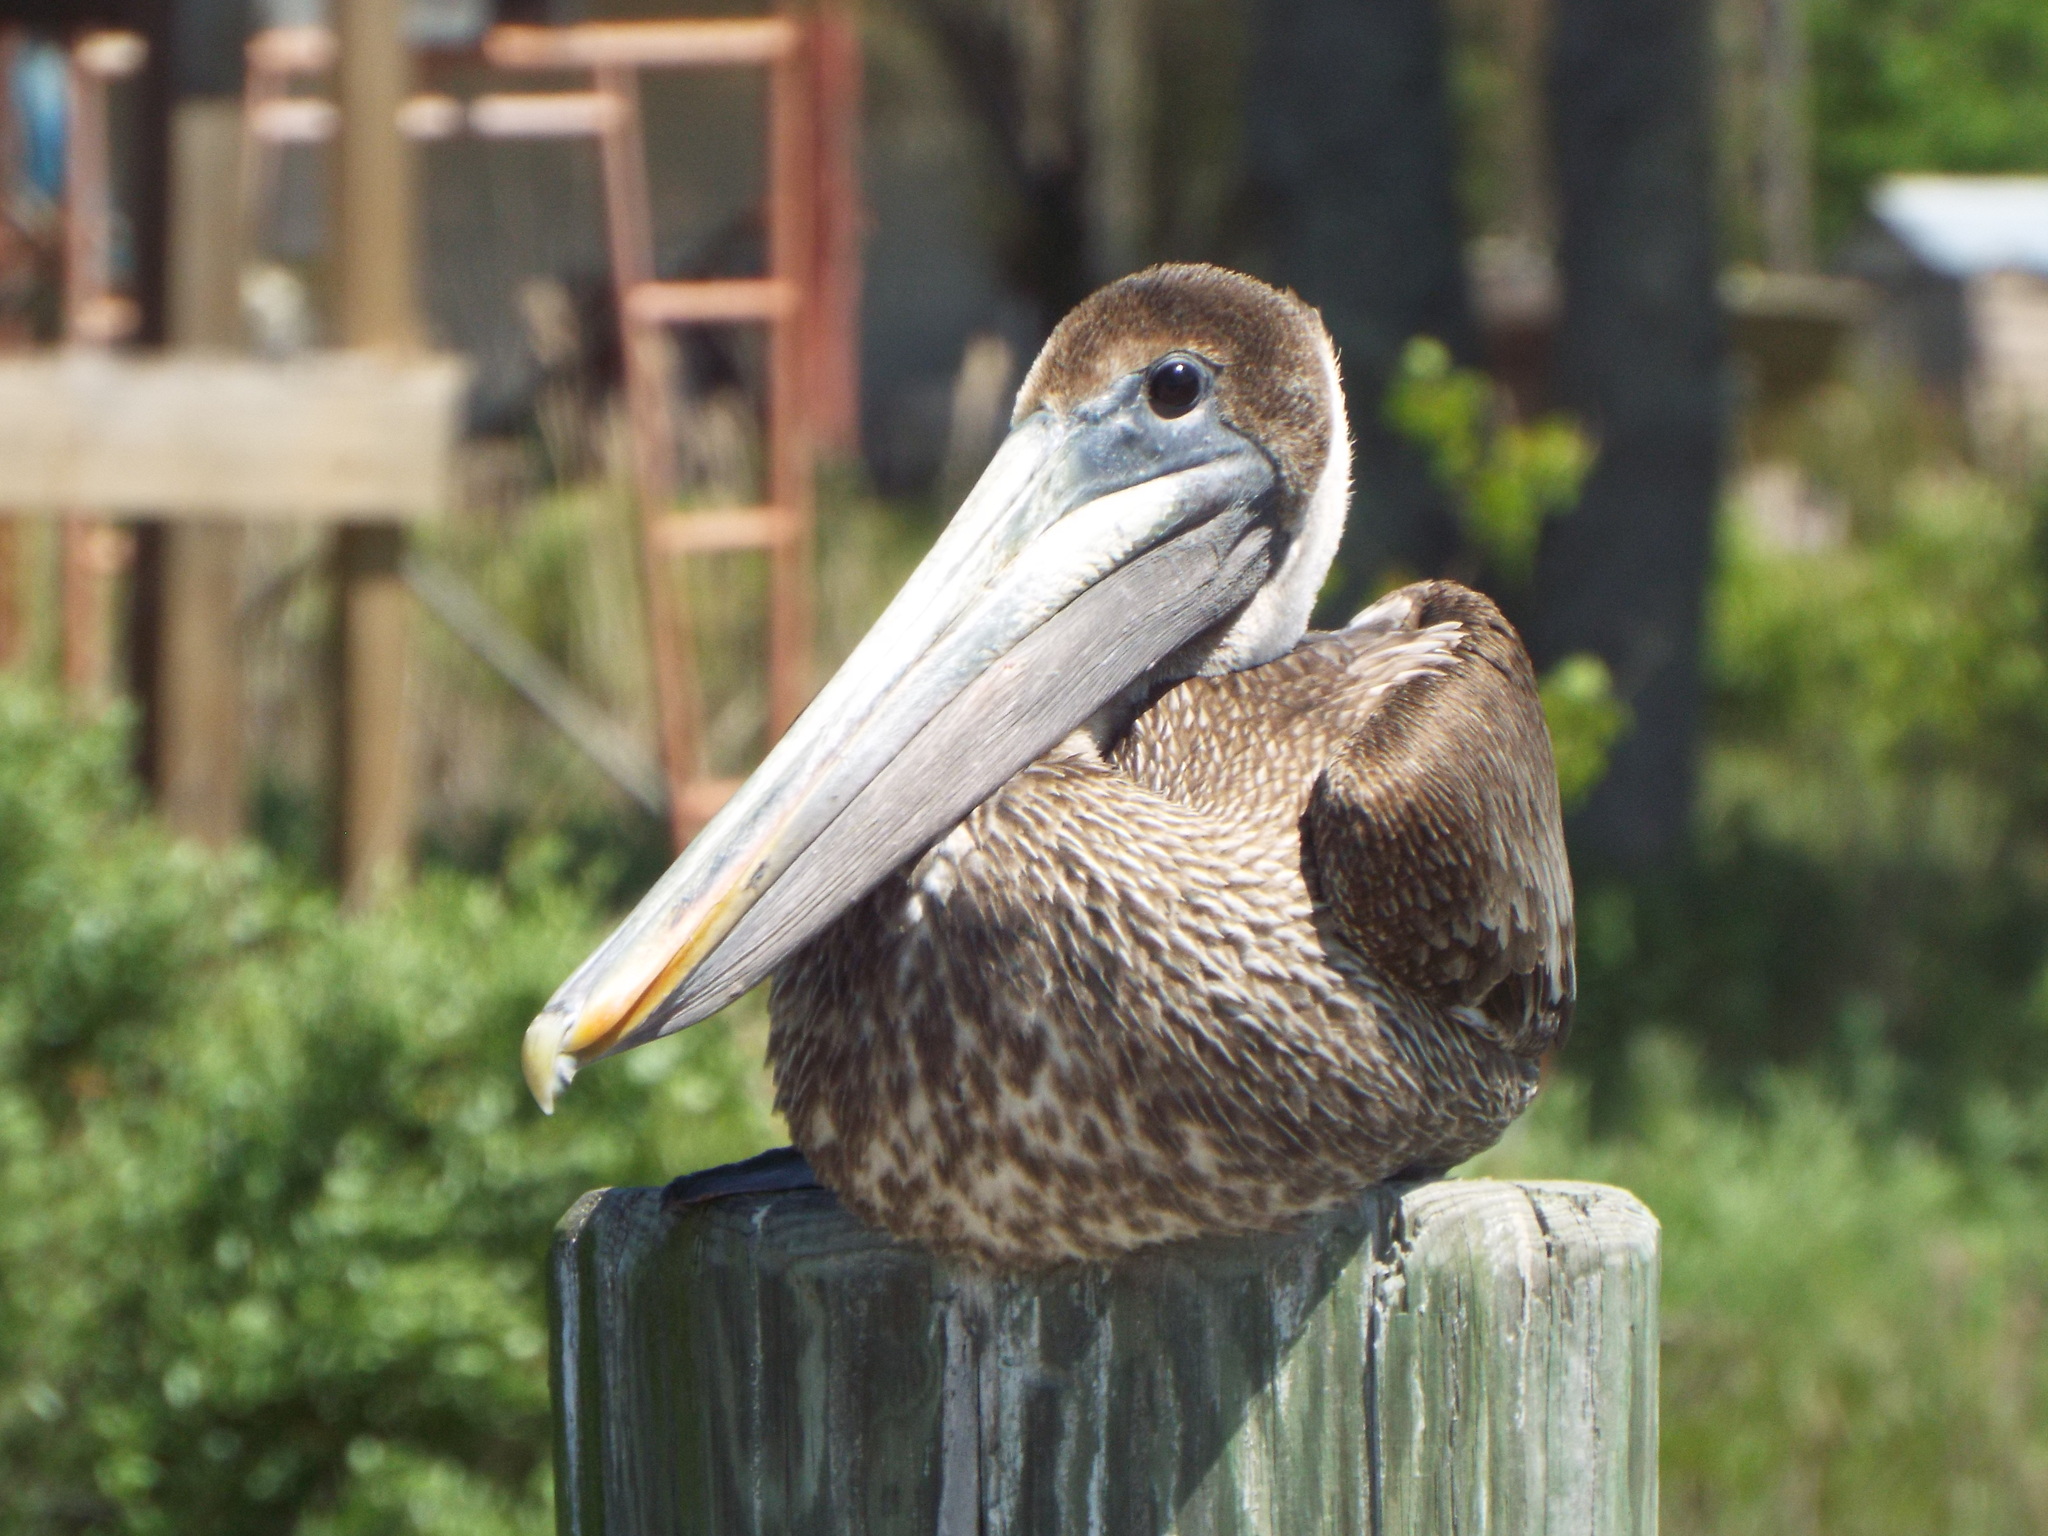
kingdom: Animalia
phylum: Chordata
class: Aves
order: Pelecaniformes
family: Pelecanidae
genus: Pelecanus
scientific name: Pelecanus occidentalis
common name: Brown pelican
